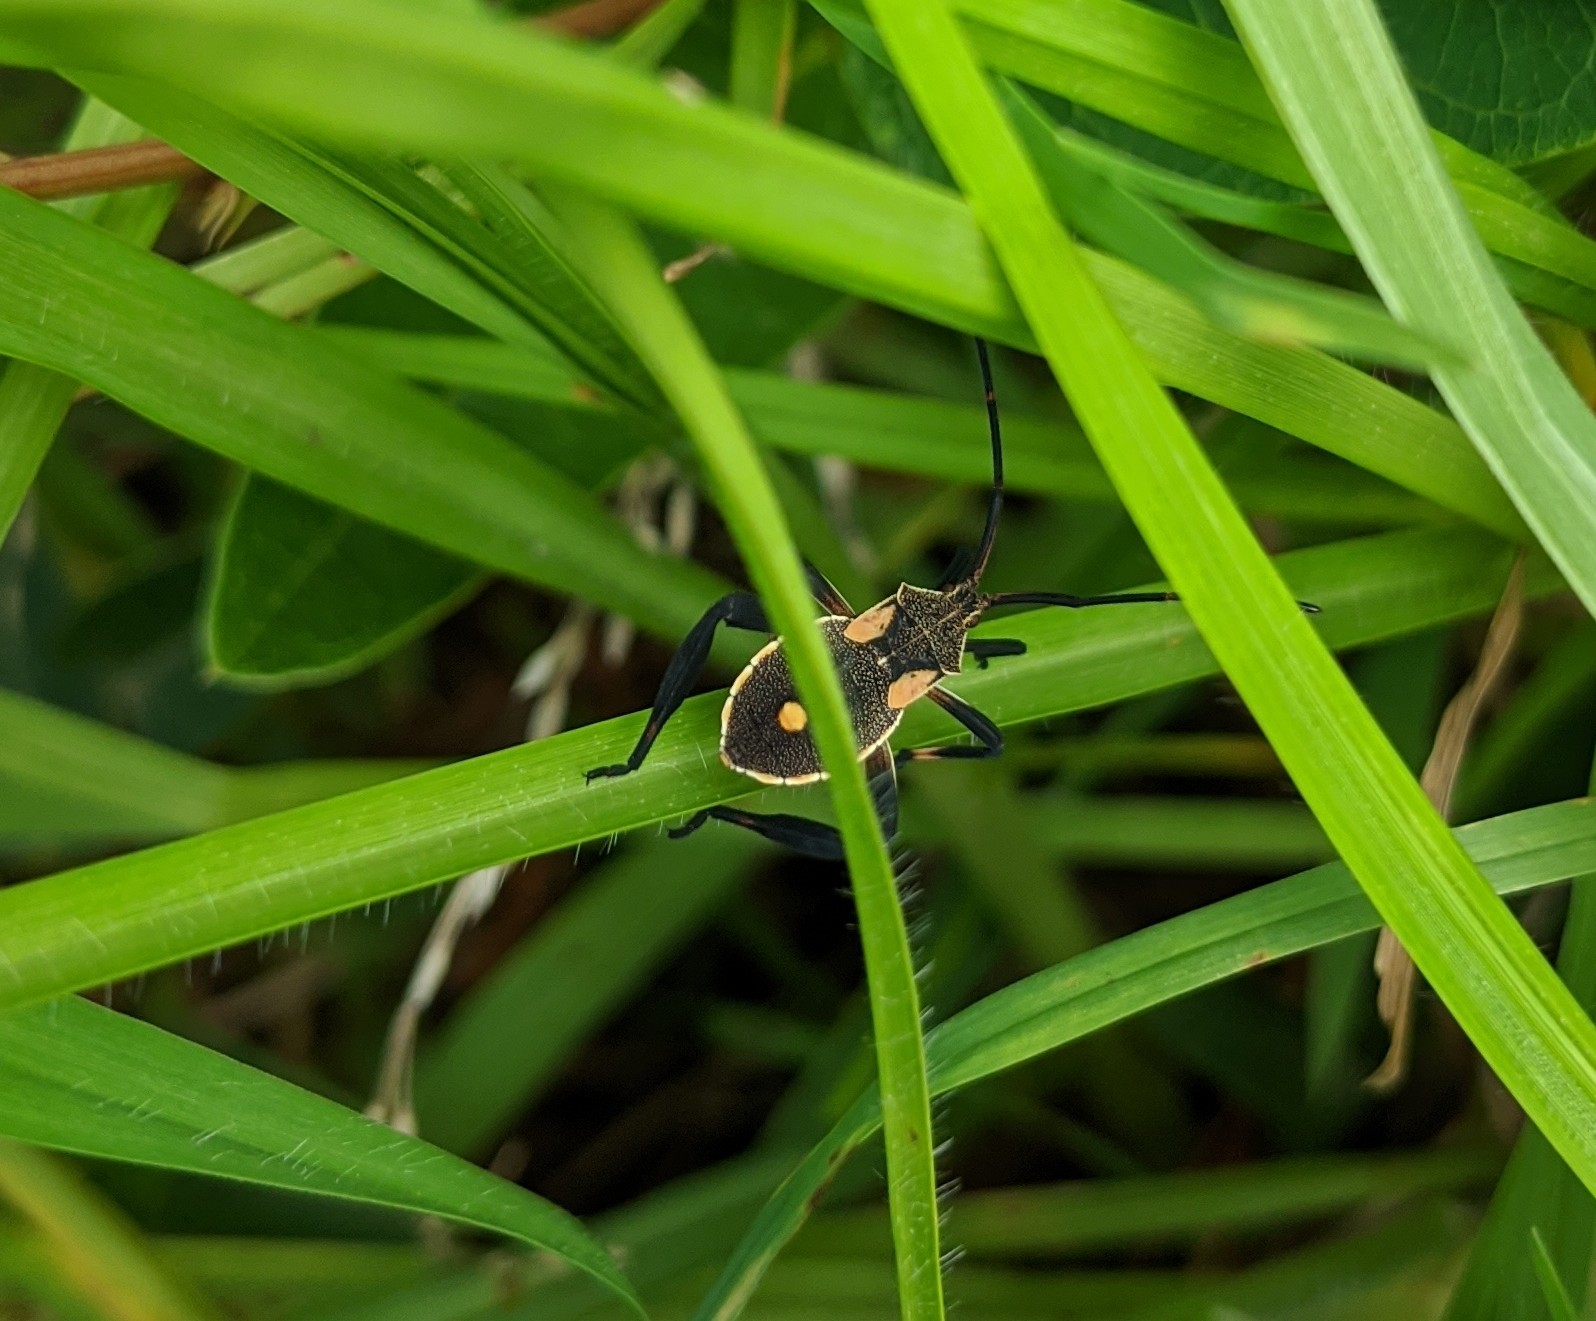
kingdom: Animalia
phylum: Arthropoda
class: Insecta
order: Hemiptera
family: Coreidae
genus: Mictis
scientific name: Mictis profana
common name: Crusader bug
